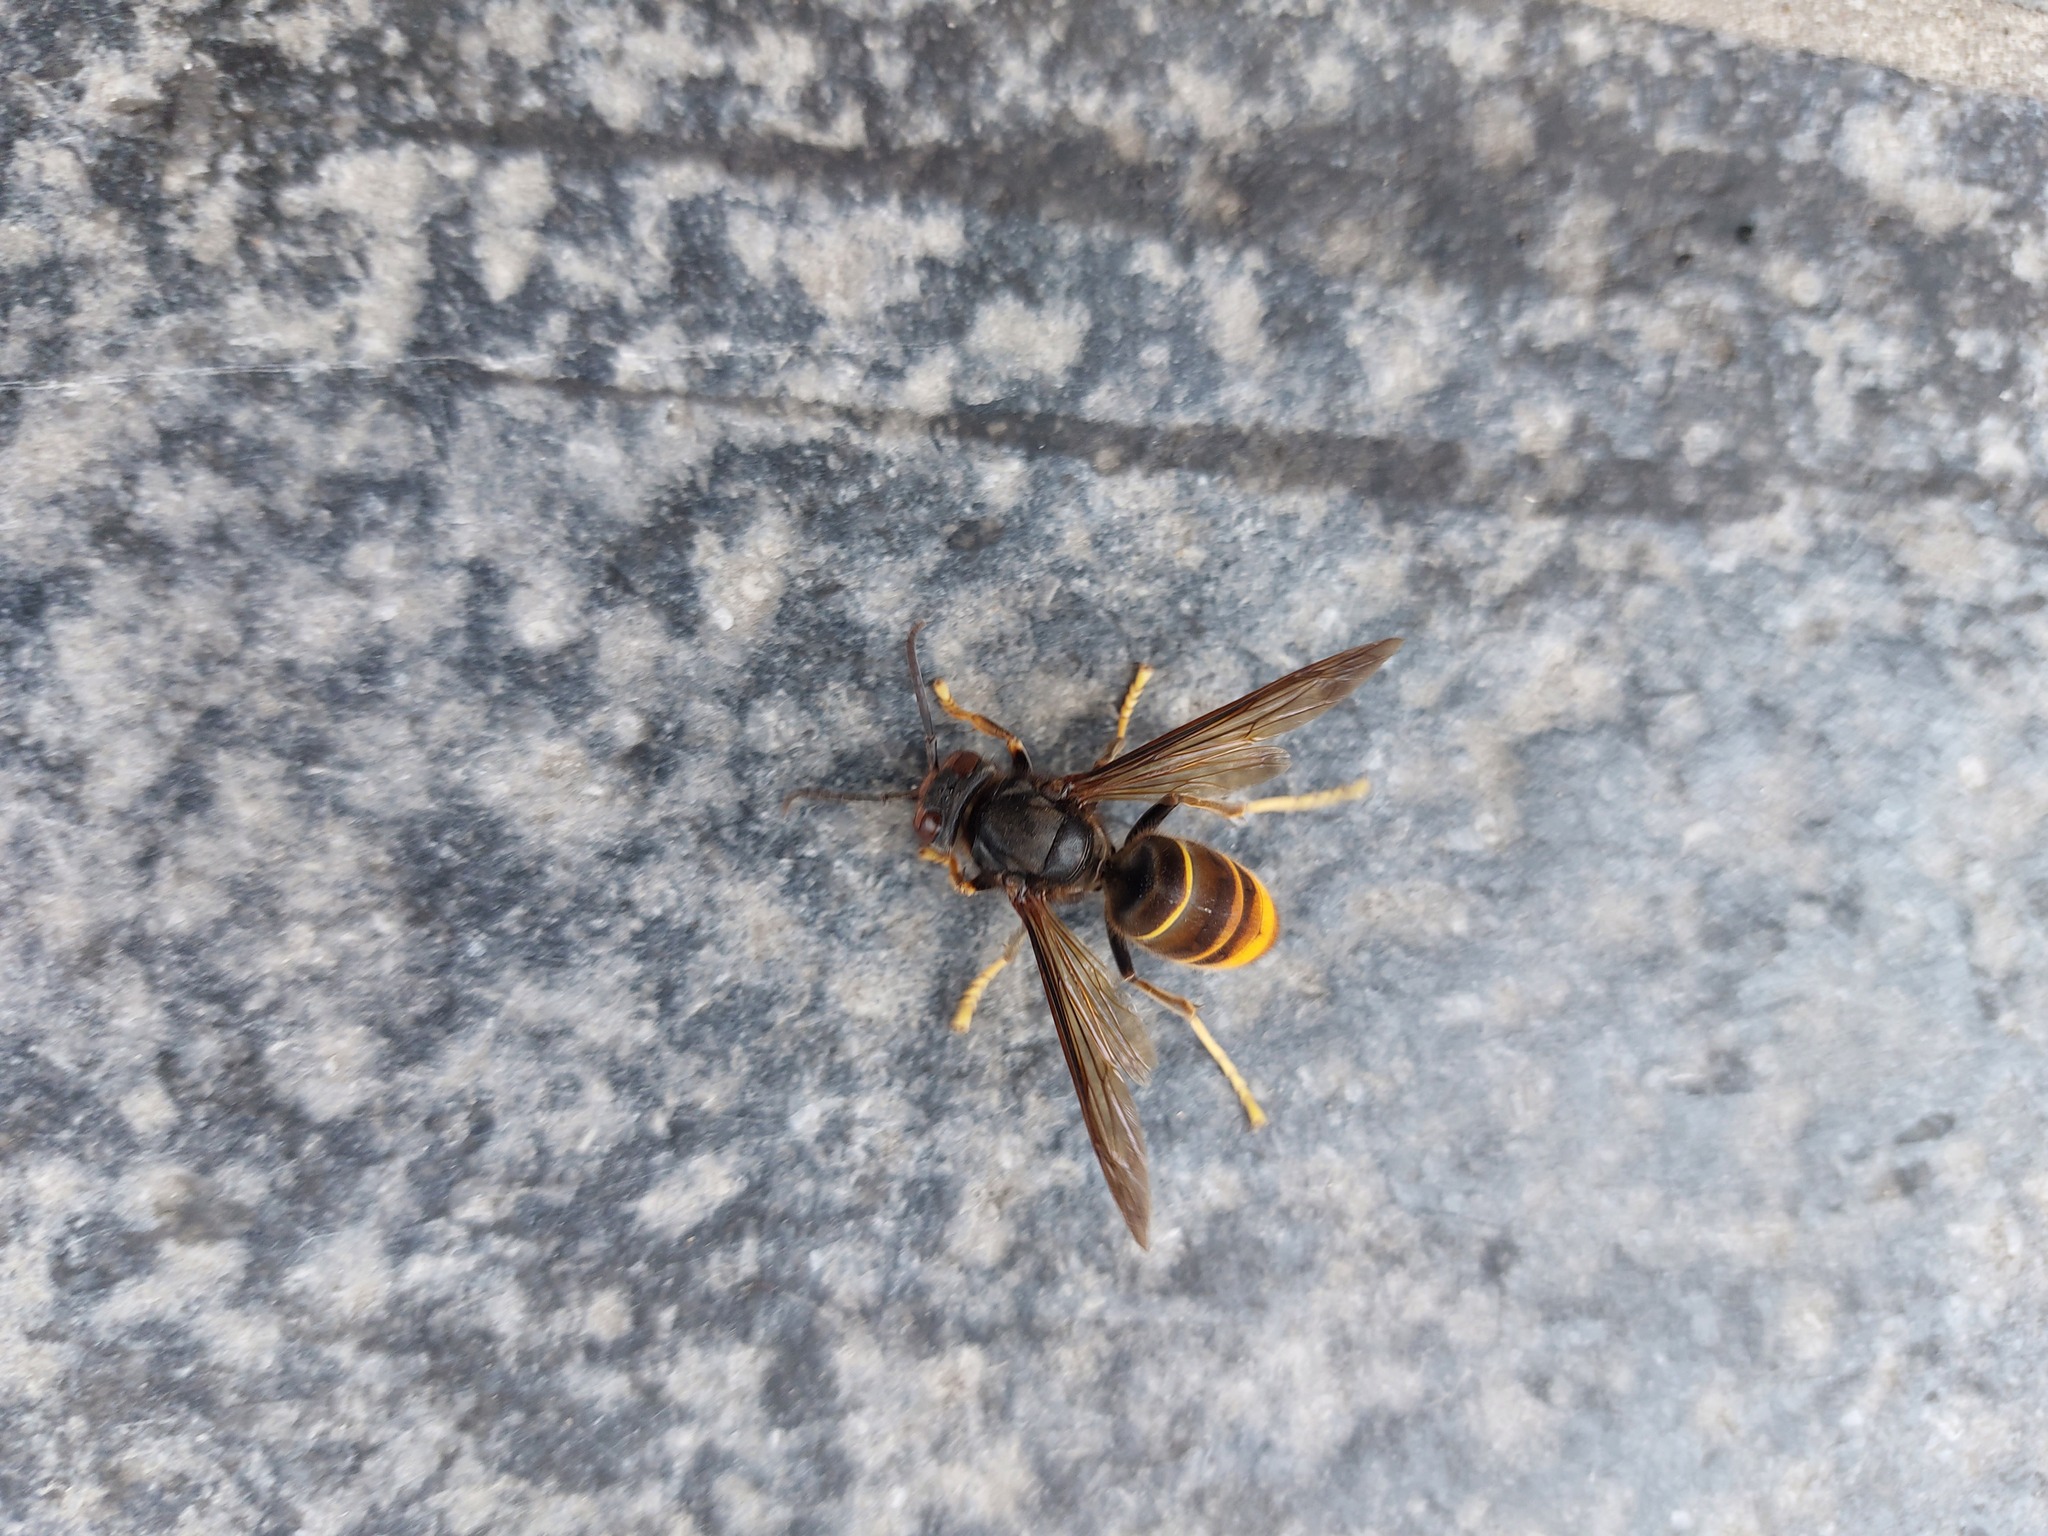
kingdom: Animalia
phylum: Arthropoda
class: Insecta
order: Hymenoptera
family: Vespidae
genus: Vespa
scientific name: Vespa velutina
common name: Asian hornet
